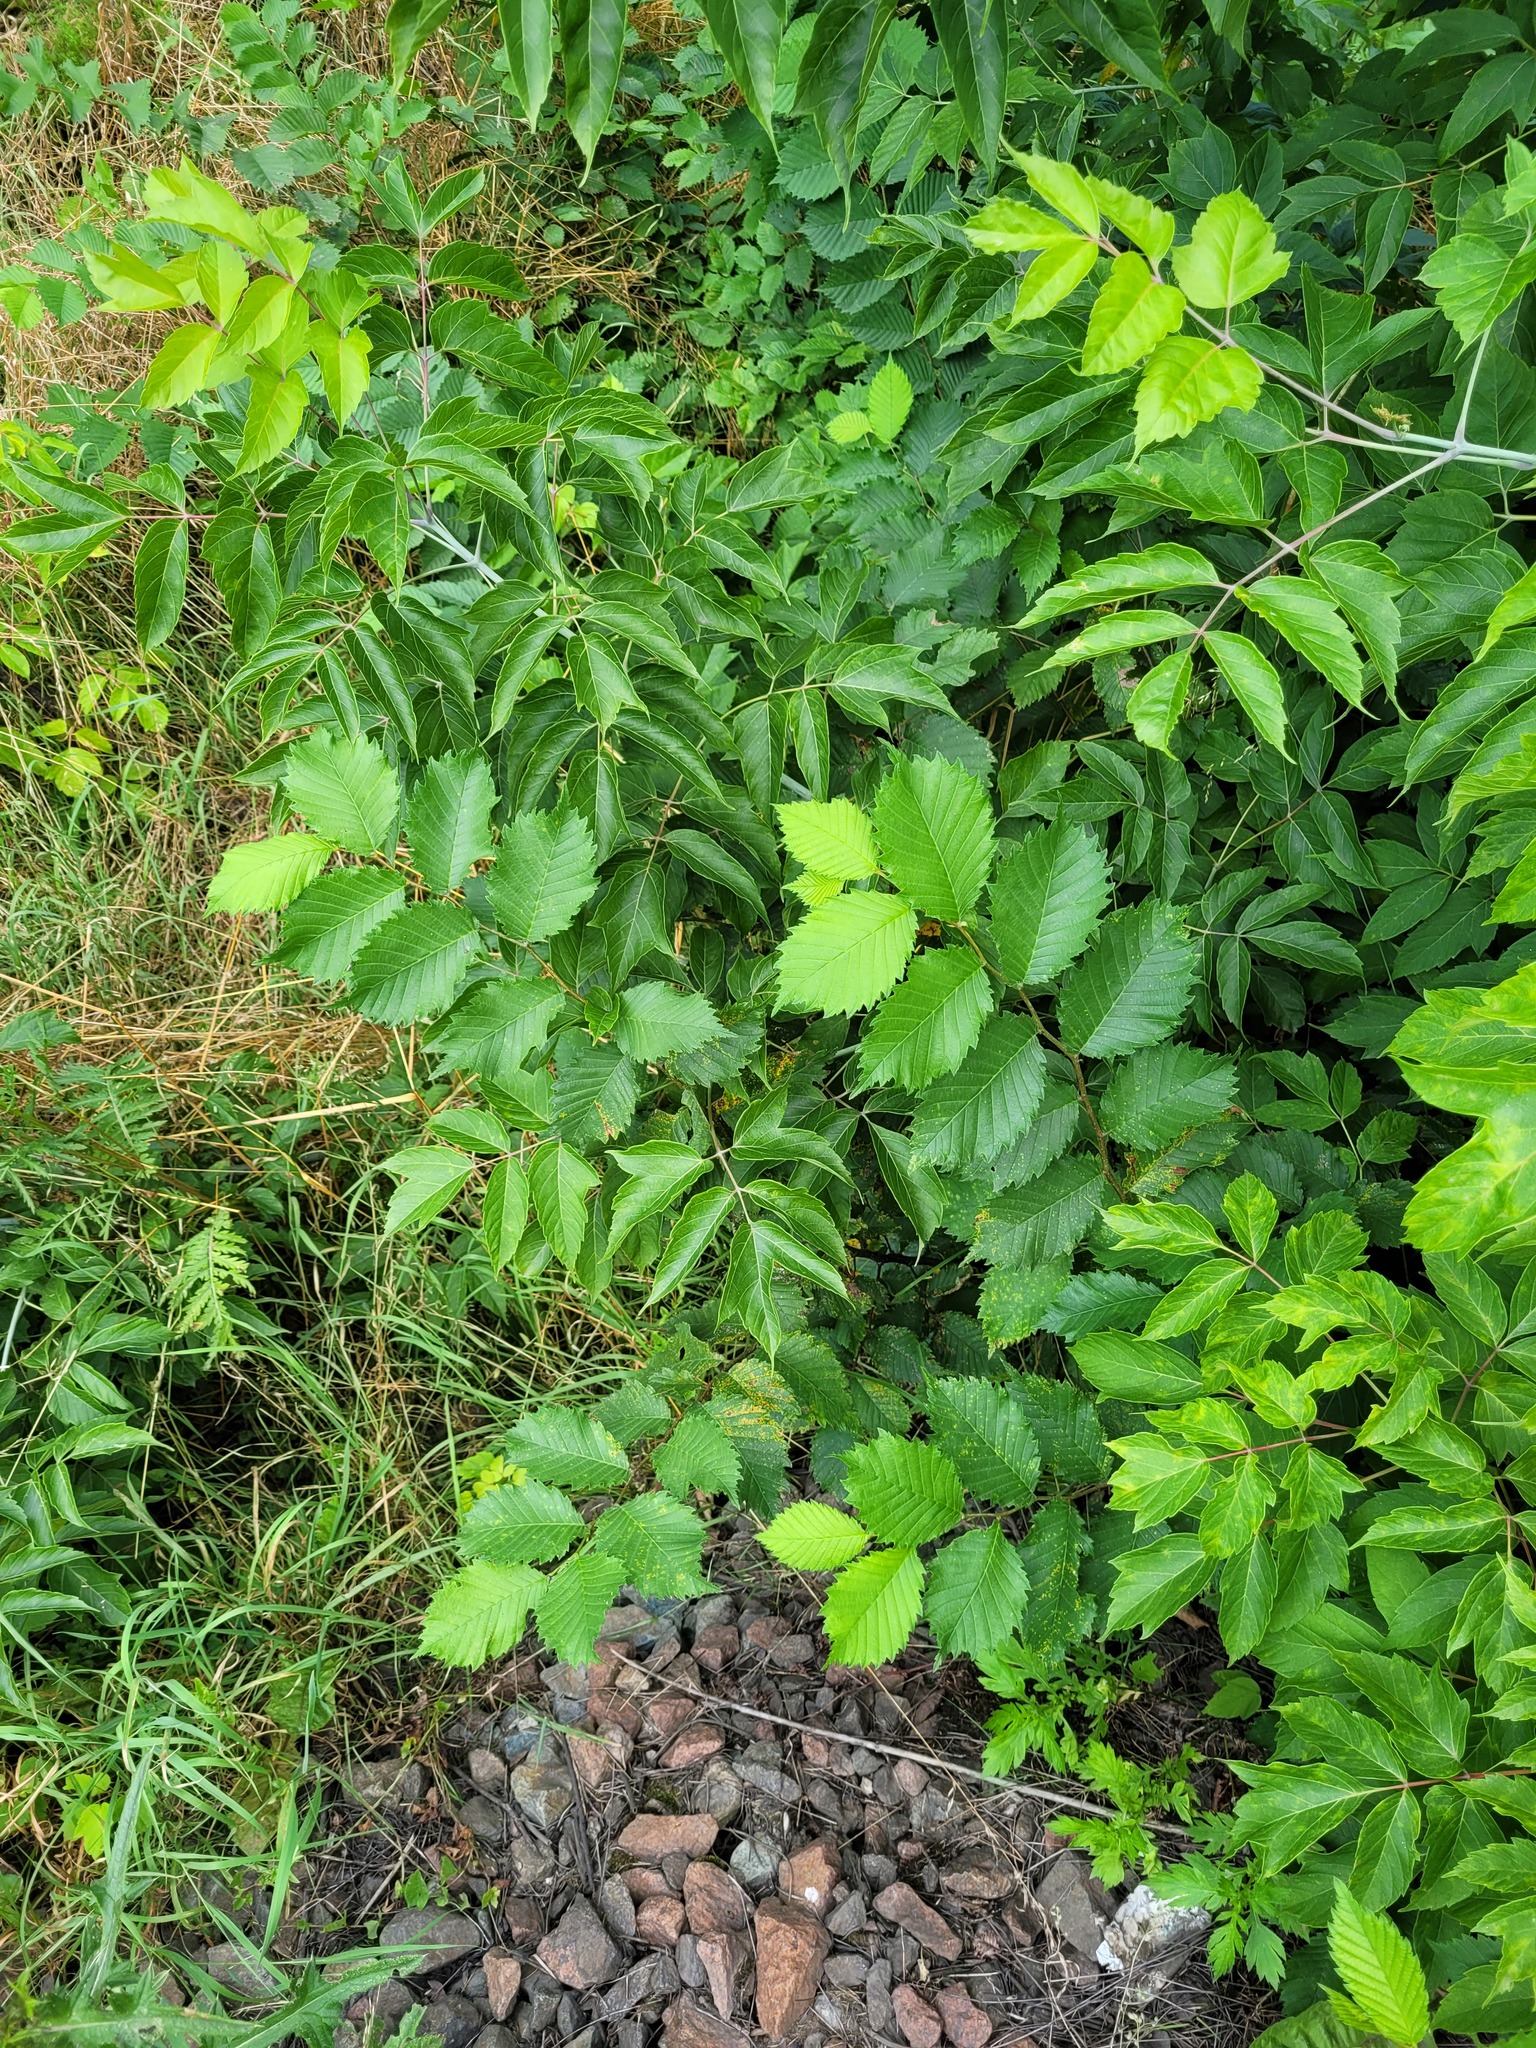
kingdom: Plantae
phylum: Tracheophyta
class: Magnoliopsida
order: Rosales
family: Ulmaceae
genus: Ulmus
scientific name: Ulmus laevis
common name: European white-elm
